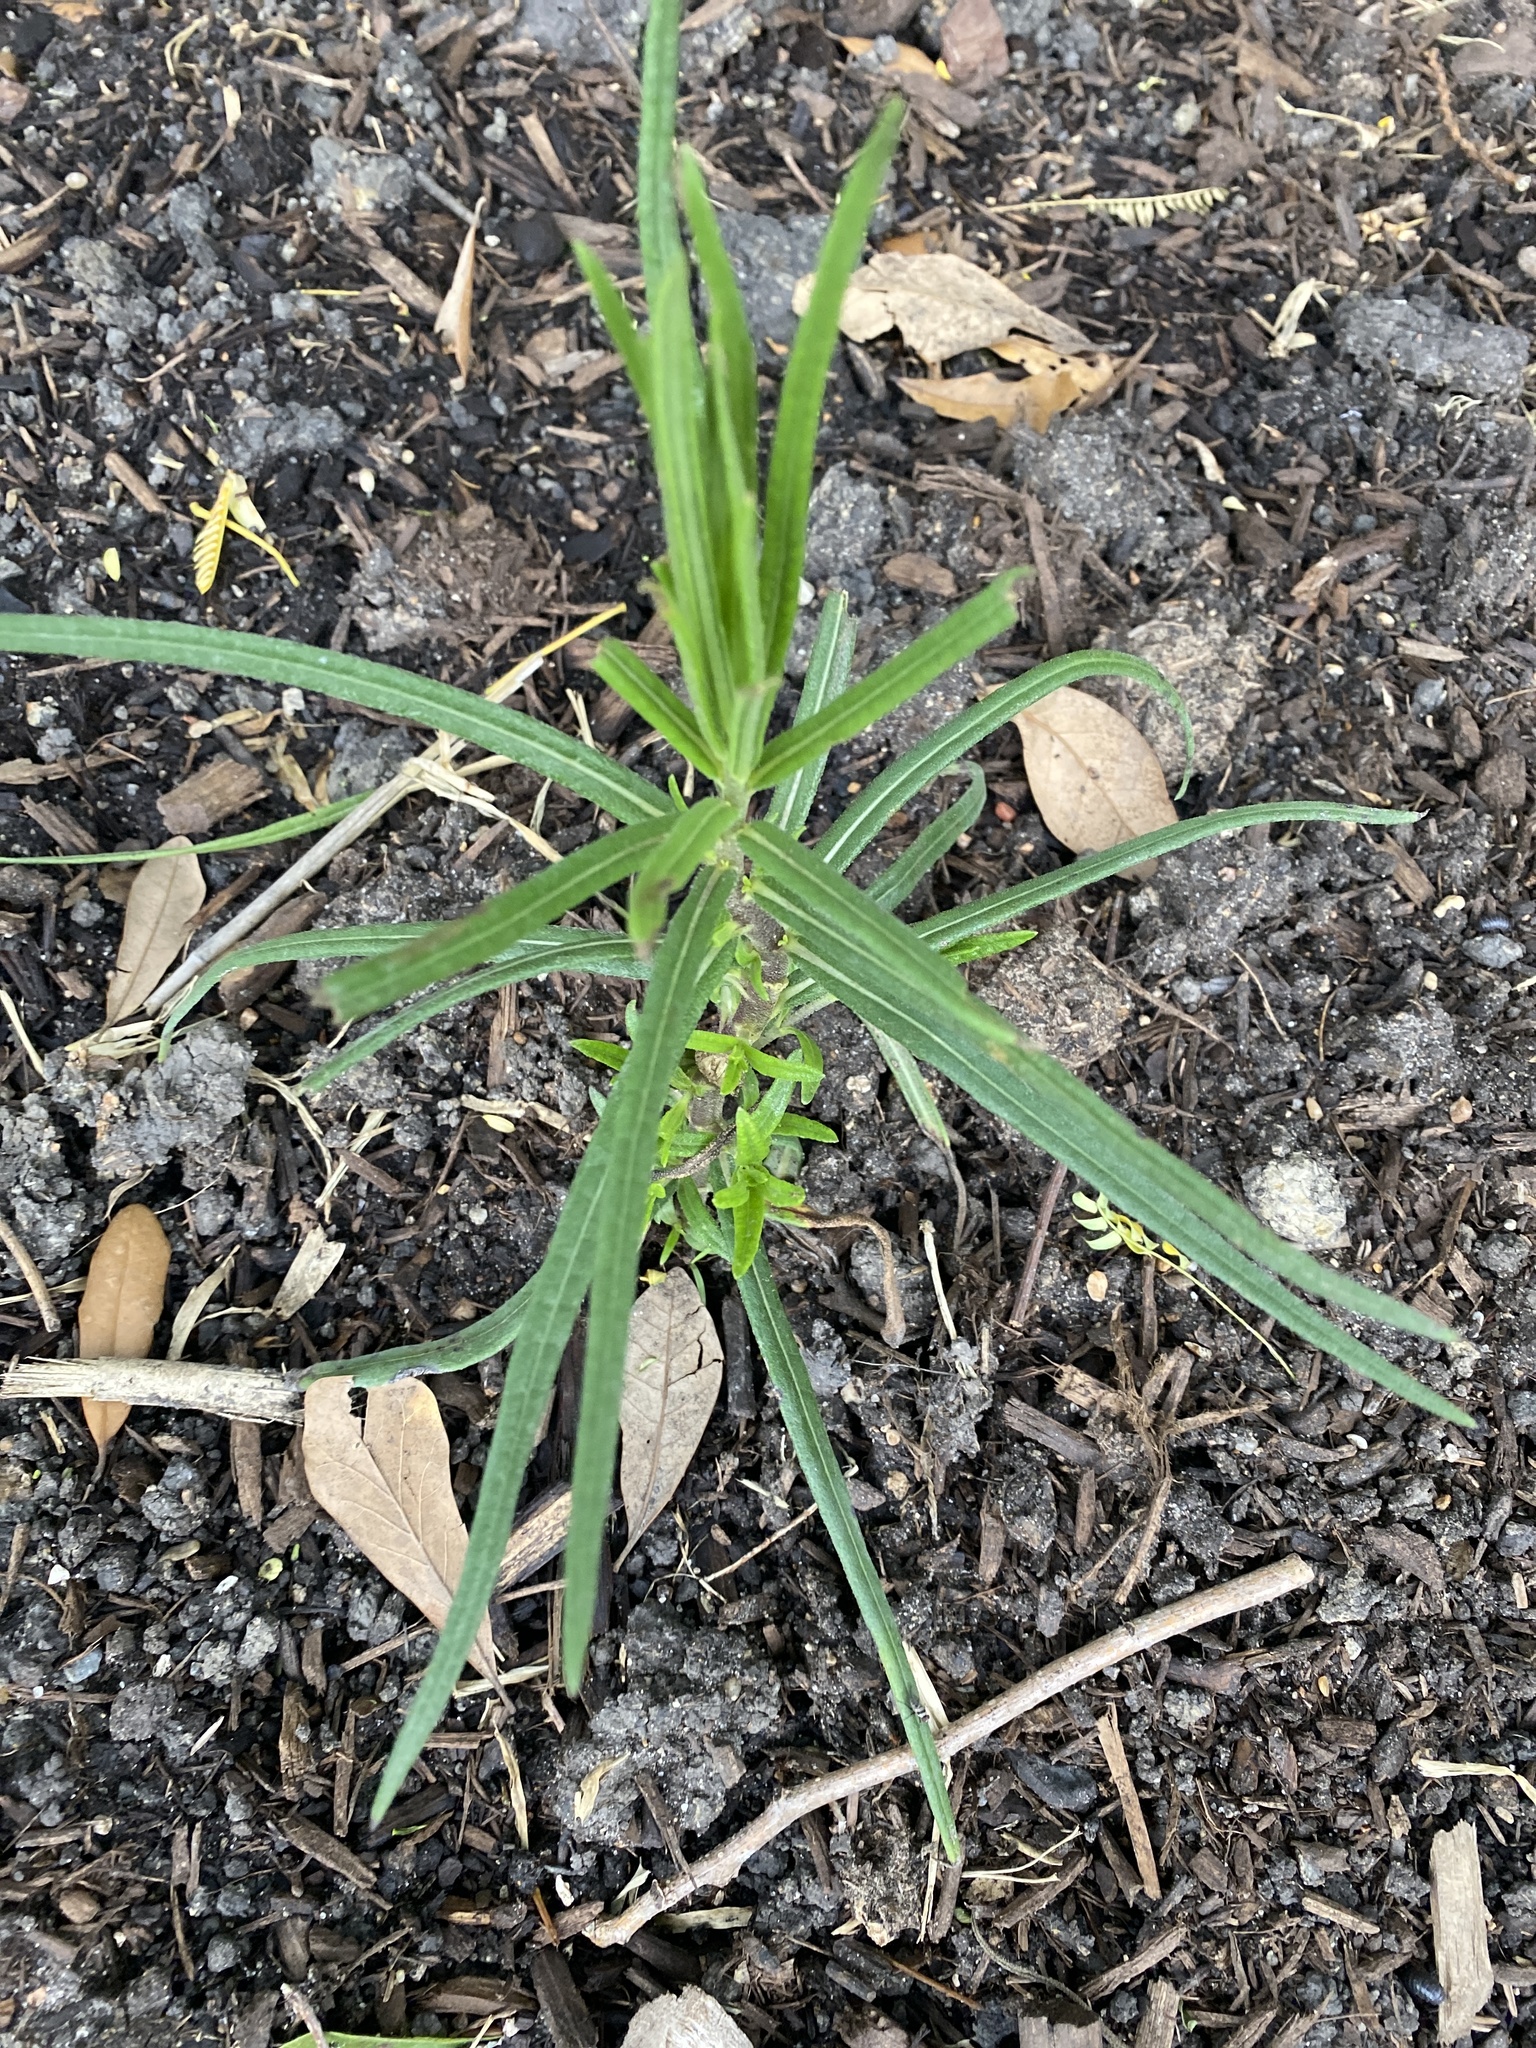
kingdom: Plantae
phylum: Tracheophyta
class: Magnoliopsida
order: Asterales
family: Asteraceae
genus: Helianthus
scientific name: Helianthus angustifolius
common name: Swamp sunflower
